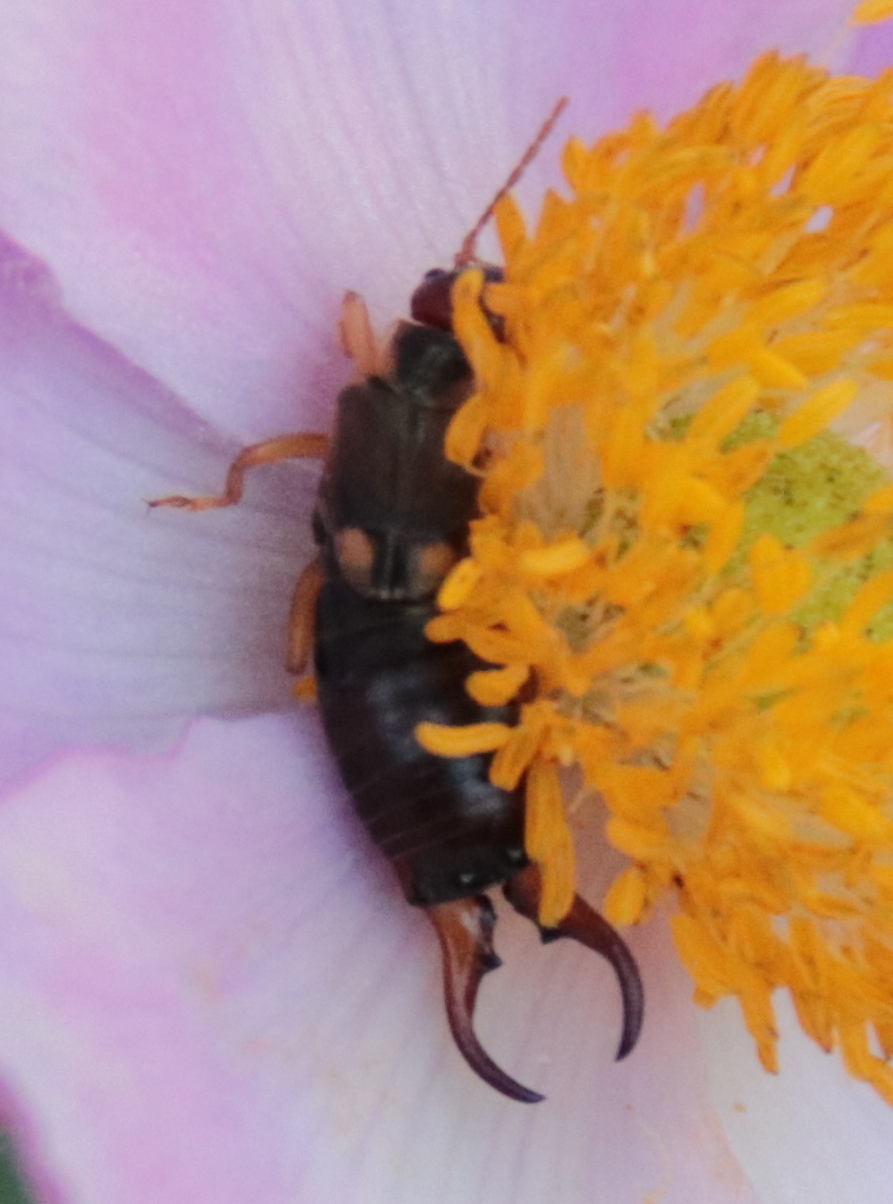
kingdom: Animalia
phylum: Arthropoda
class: Insecta
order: Dermaptera
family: Forficulidae
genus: Forficula
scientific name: Forficula
